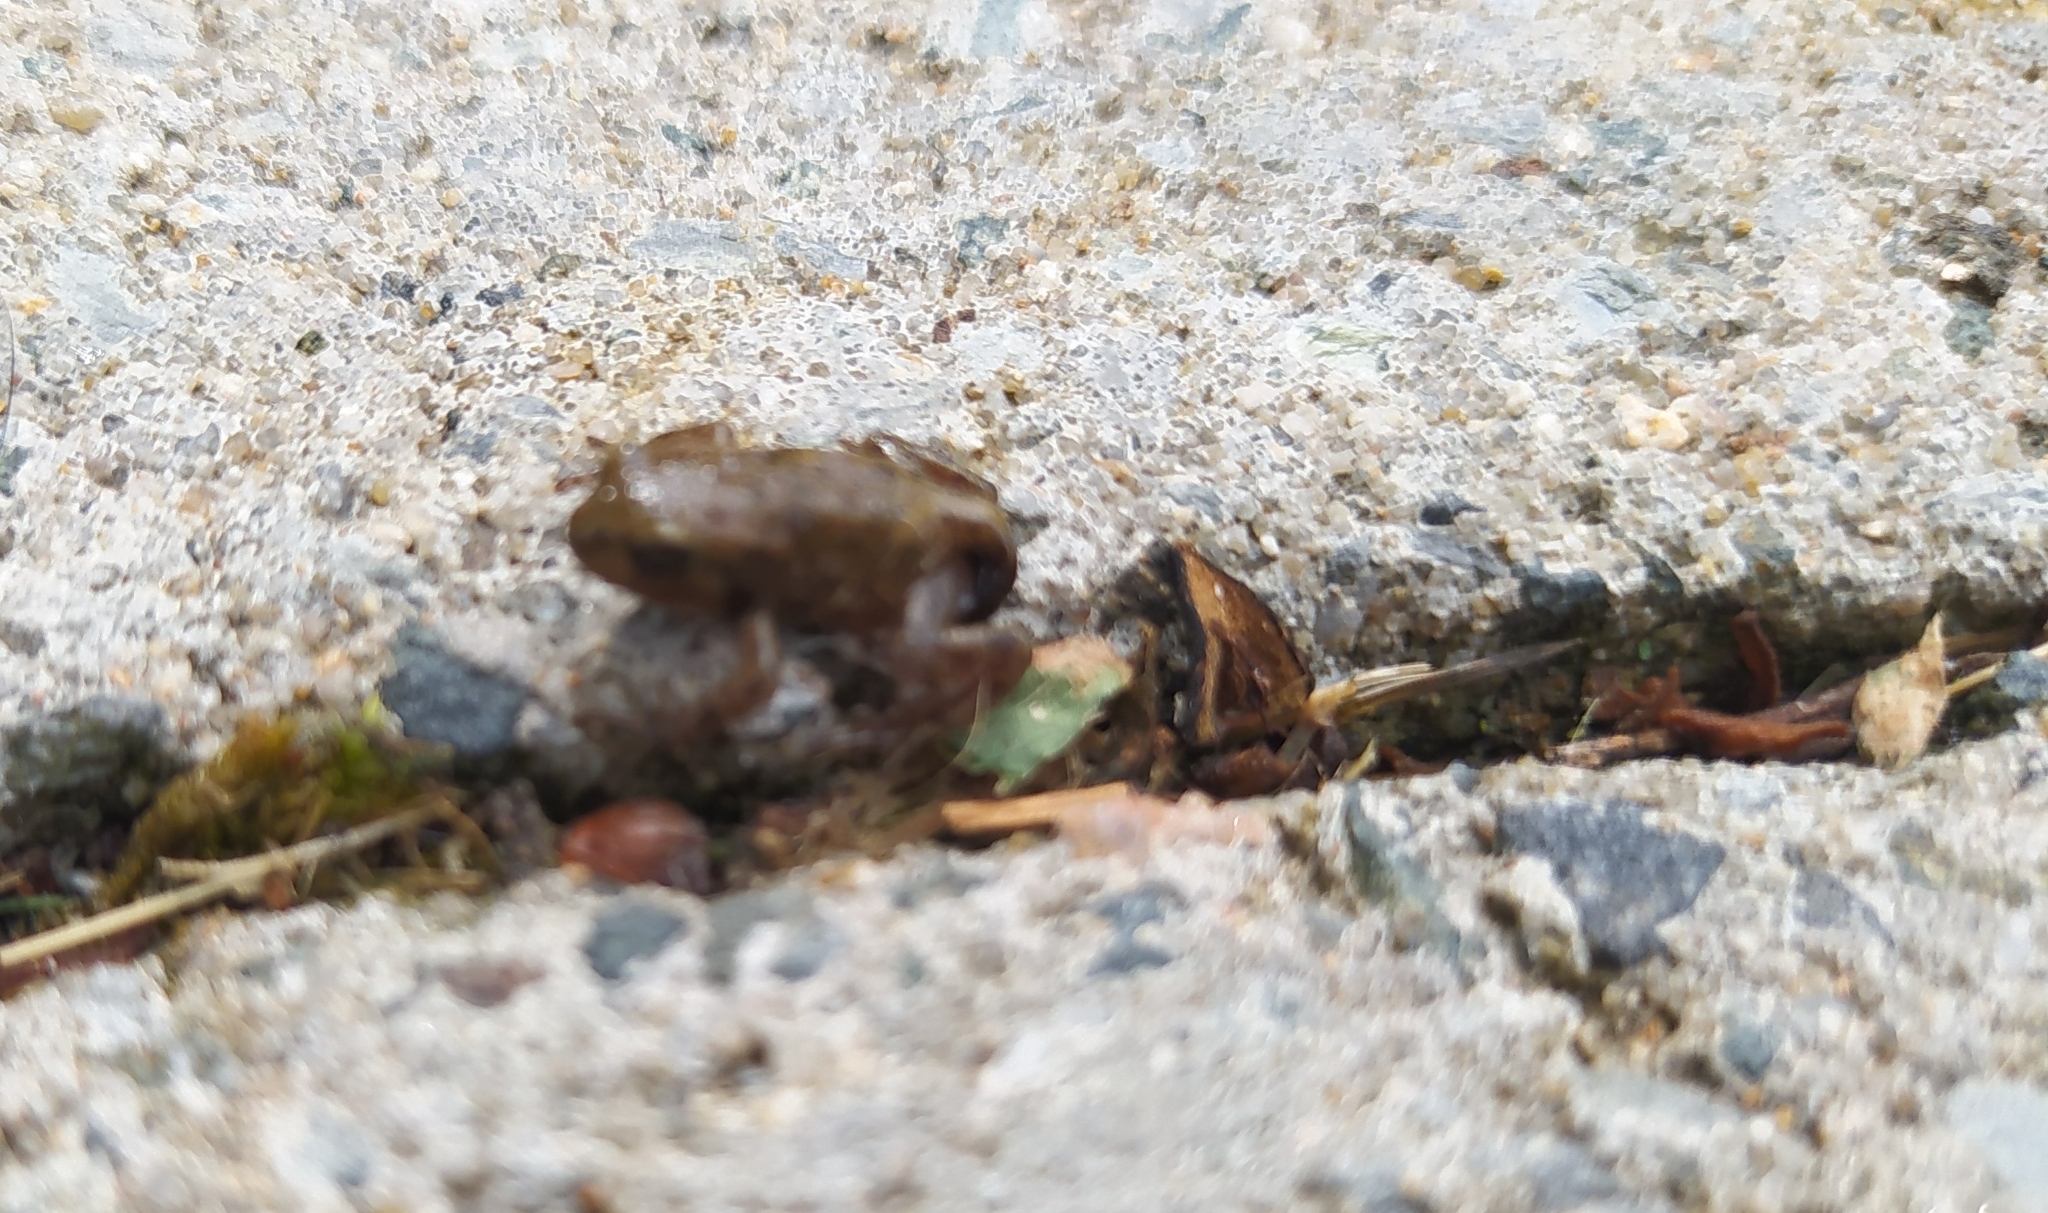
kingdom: Animalia
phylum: Chordata
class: Amphibia
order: Anura
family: Bufonidae
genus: Bufo
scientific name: Bufo bufo
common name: Common toad
